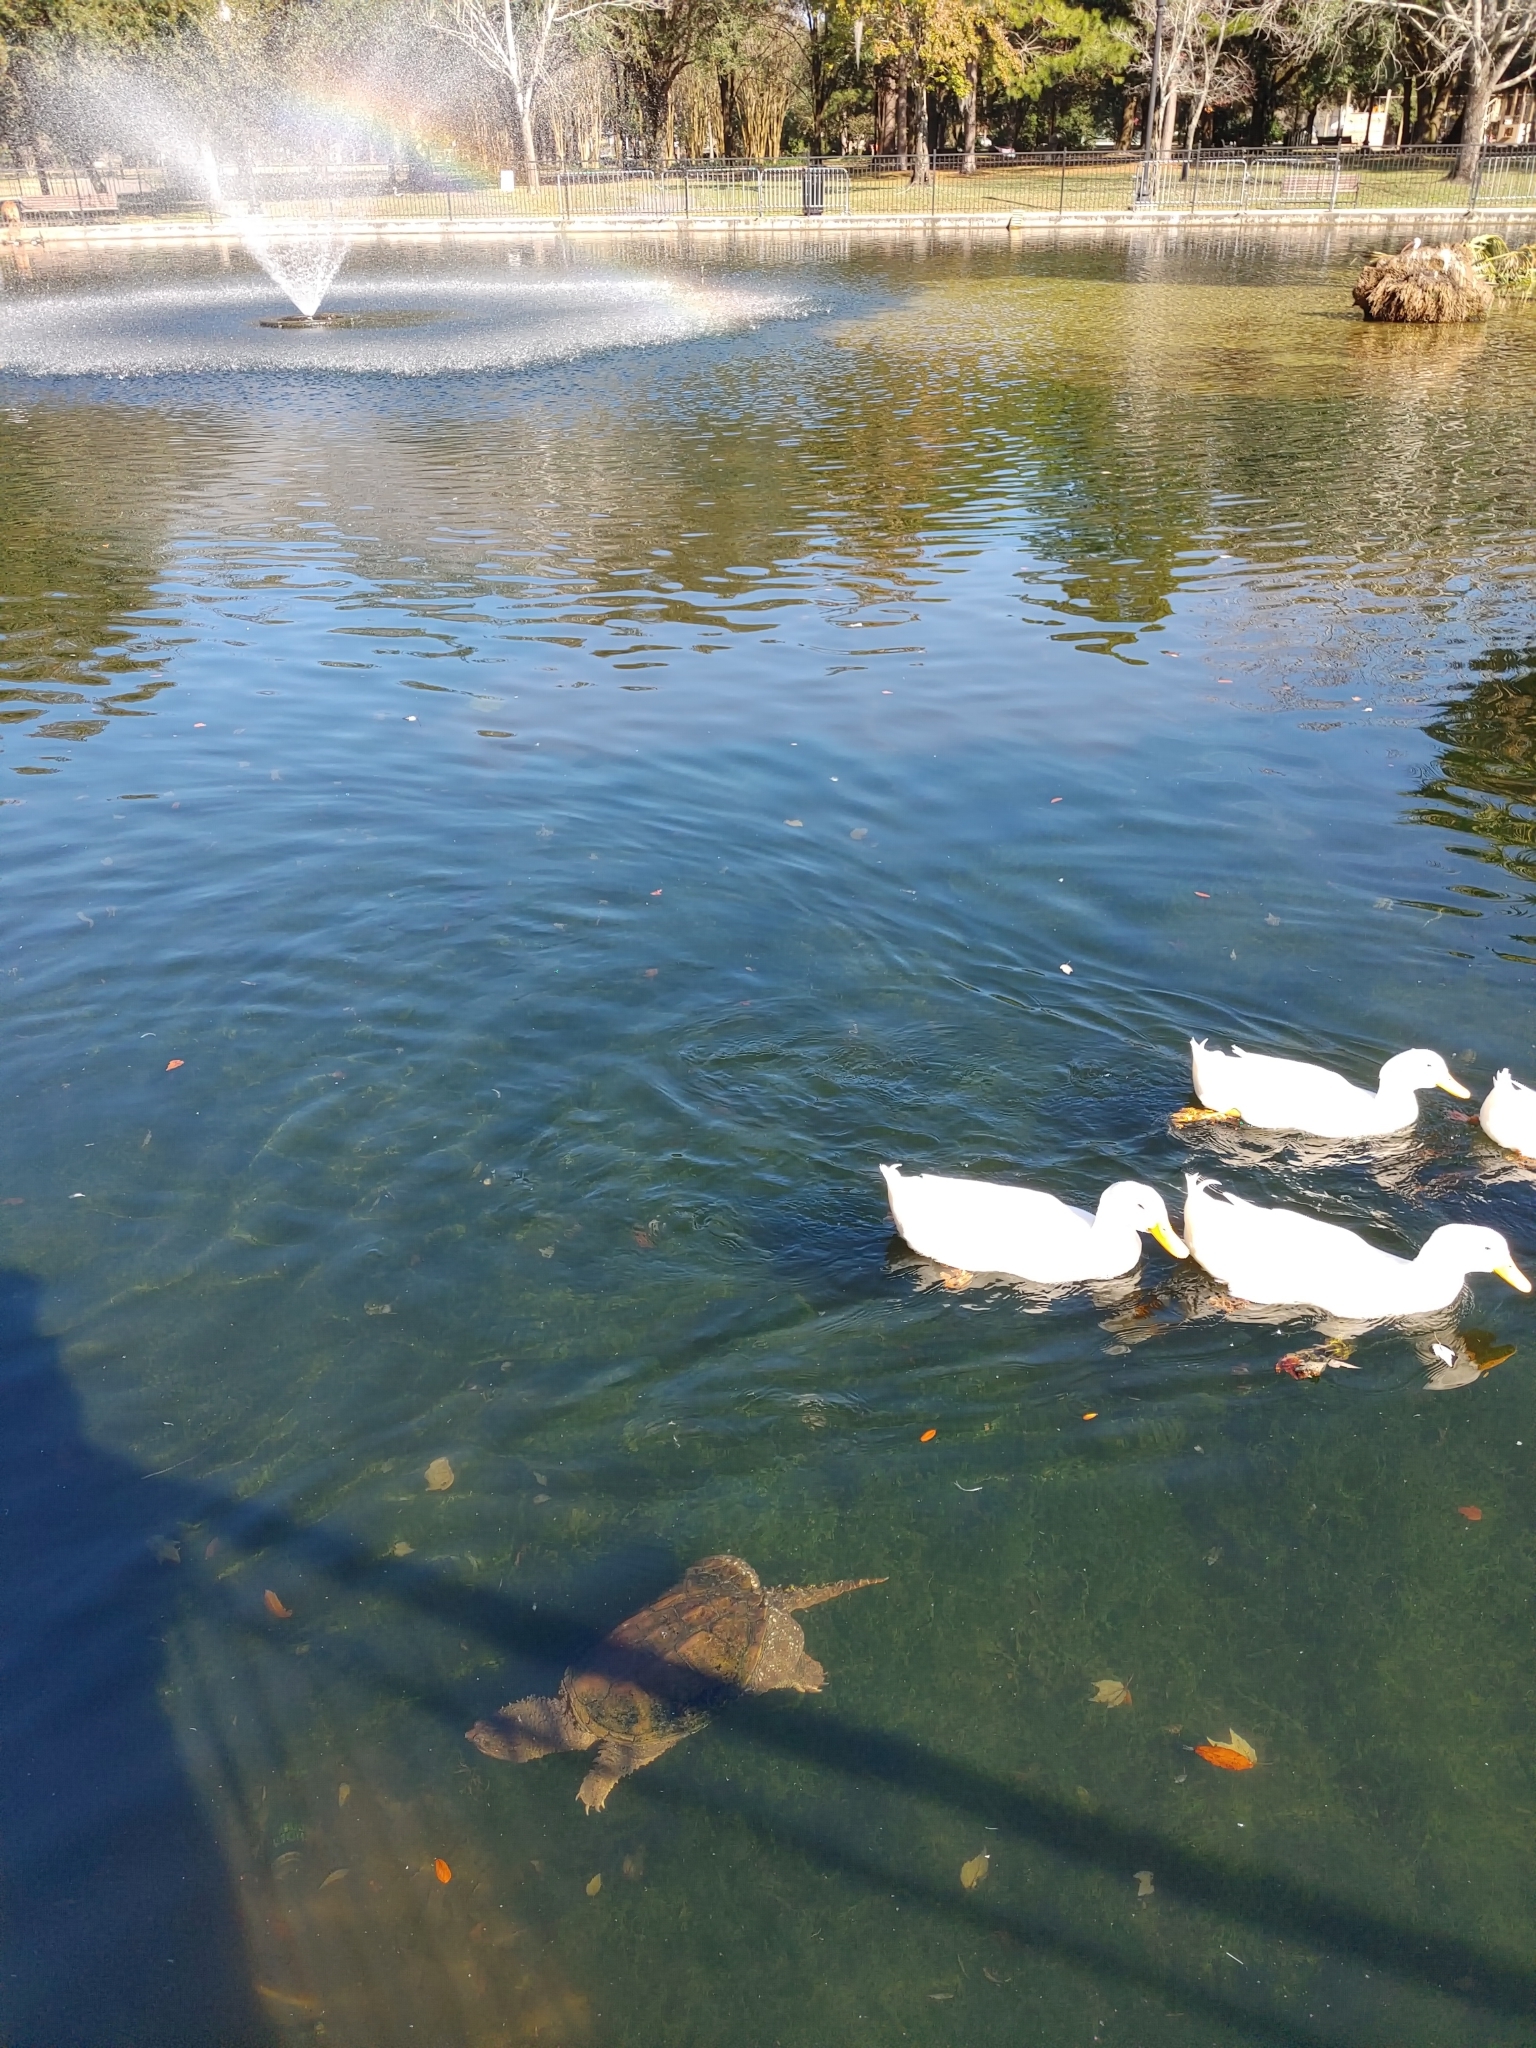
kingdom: Animalia
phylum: Chordata
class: Testudines
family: Chelydridae
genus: Chelydra
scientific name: Chelydra serpentina
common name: Common snapping turtle
